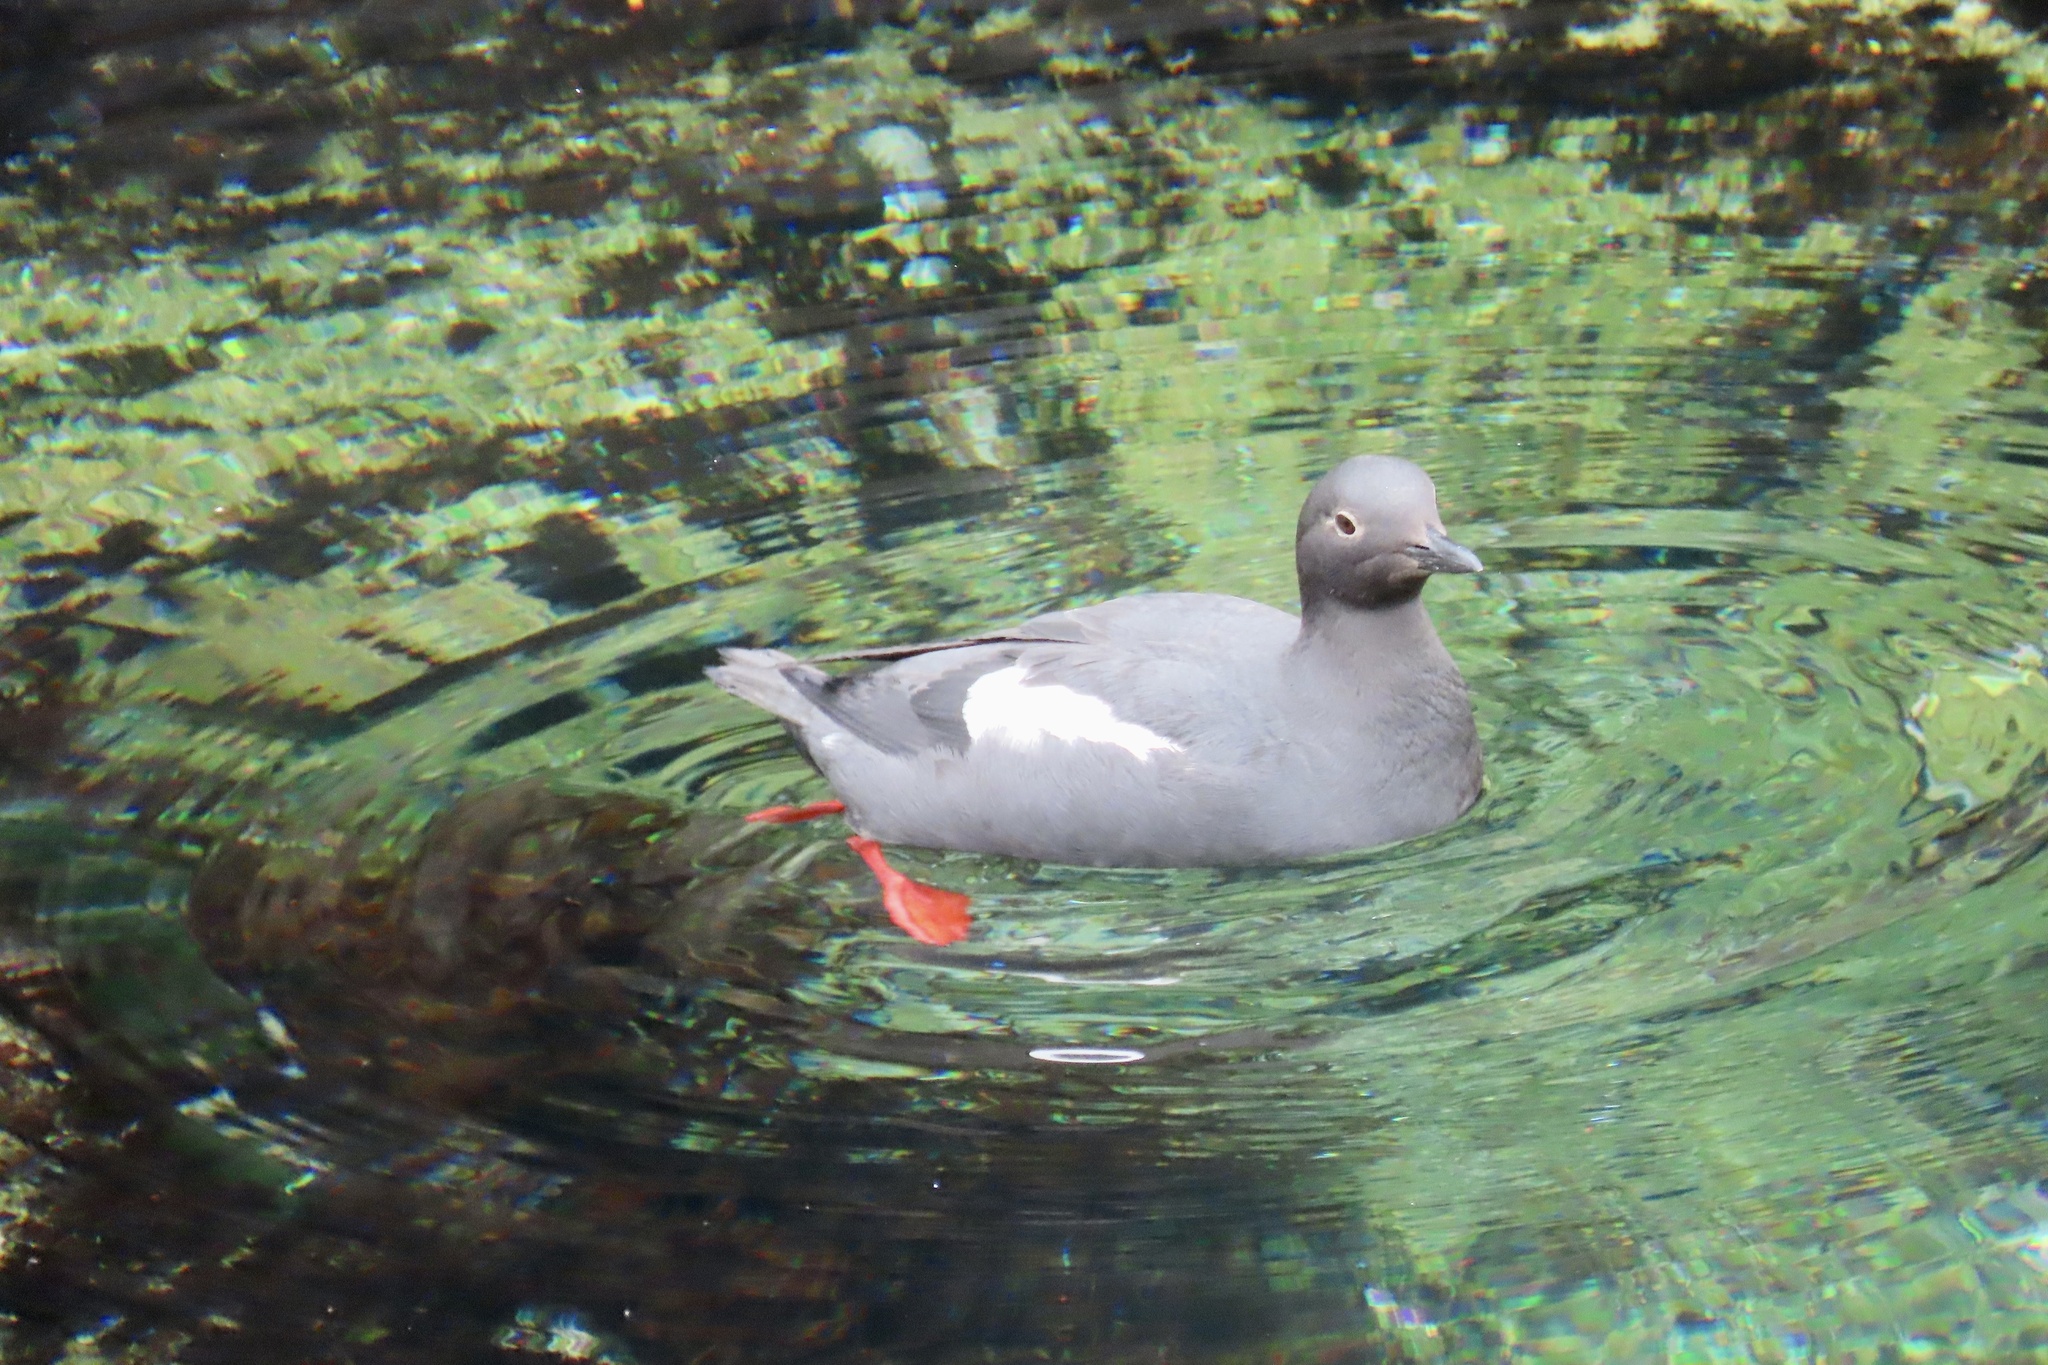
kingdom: Animalia
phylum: Chordata
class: Aves
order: Charadriiformes
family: Alcidae
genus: Cepphus
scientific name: Cepphus columba
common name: Pigeon guillemot
